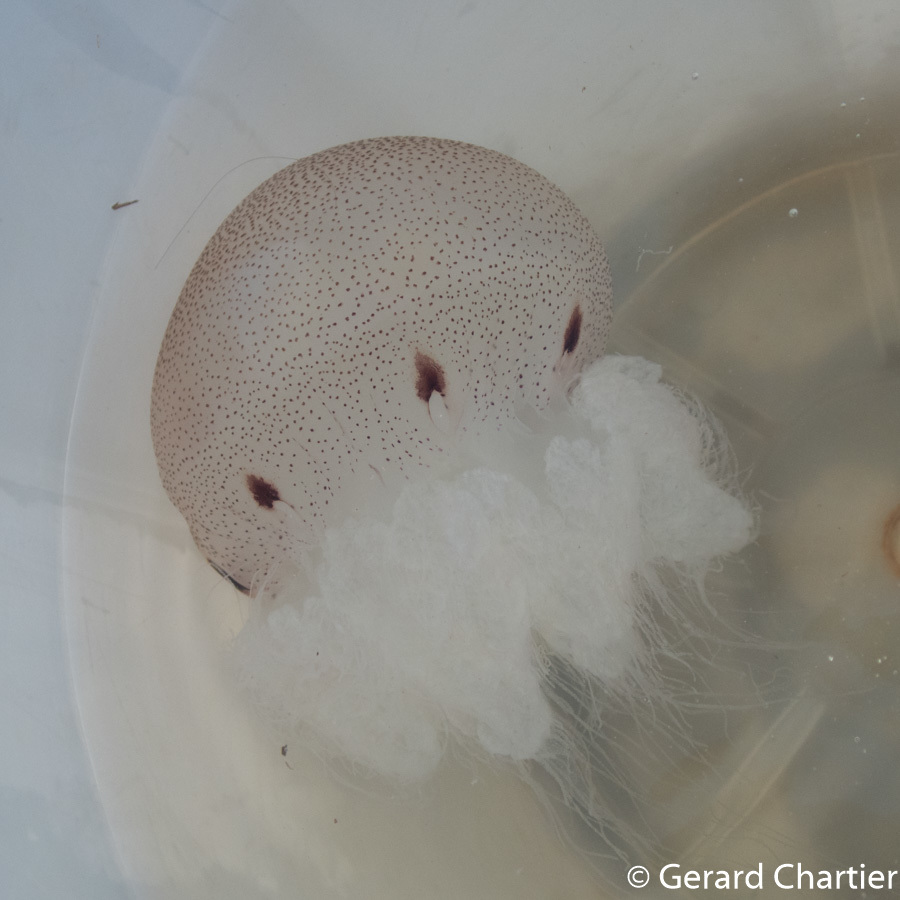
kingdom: Animalia
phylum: Cnidaria
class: Scyphozoa
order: Rhizostomeae
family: Catostylidae
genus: Acromitus
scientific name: Acromitus flagellatus
